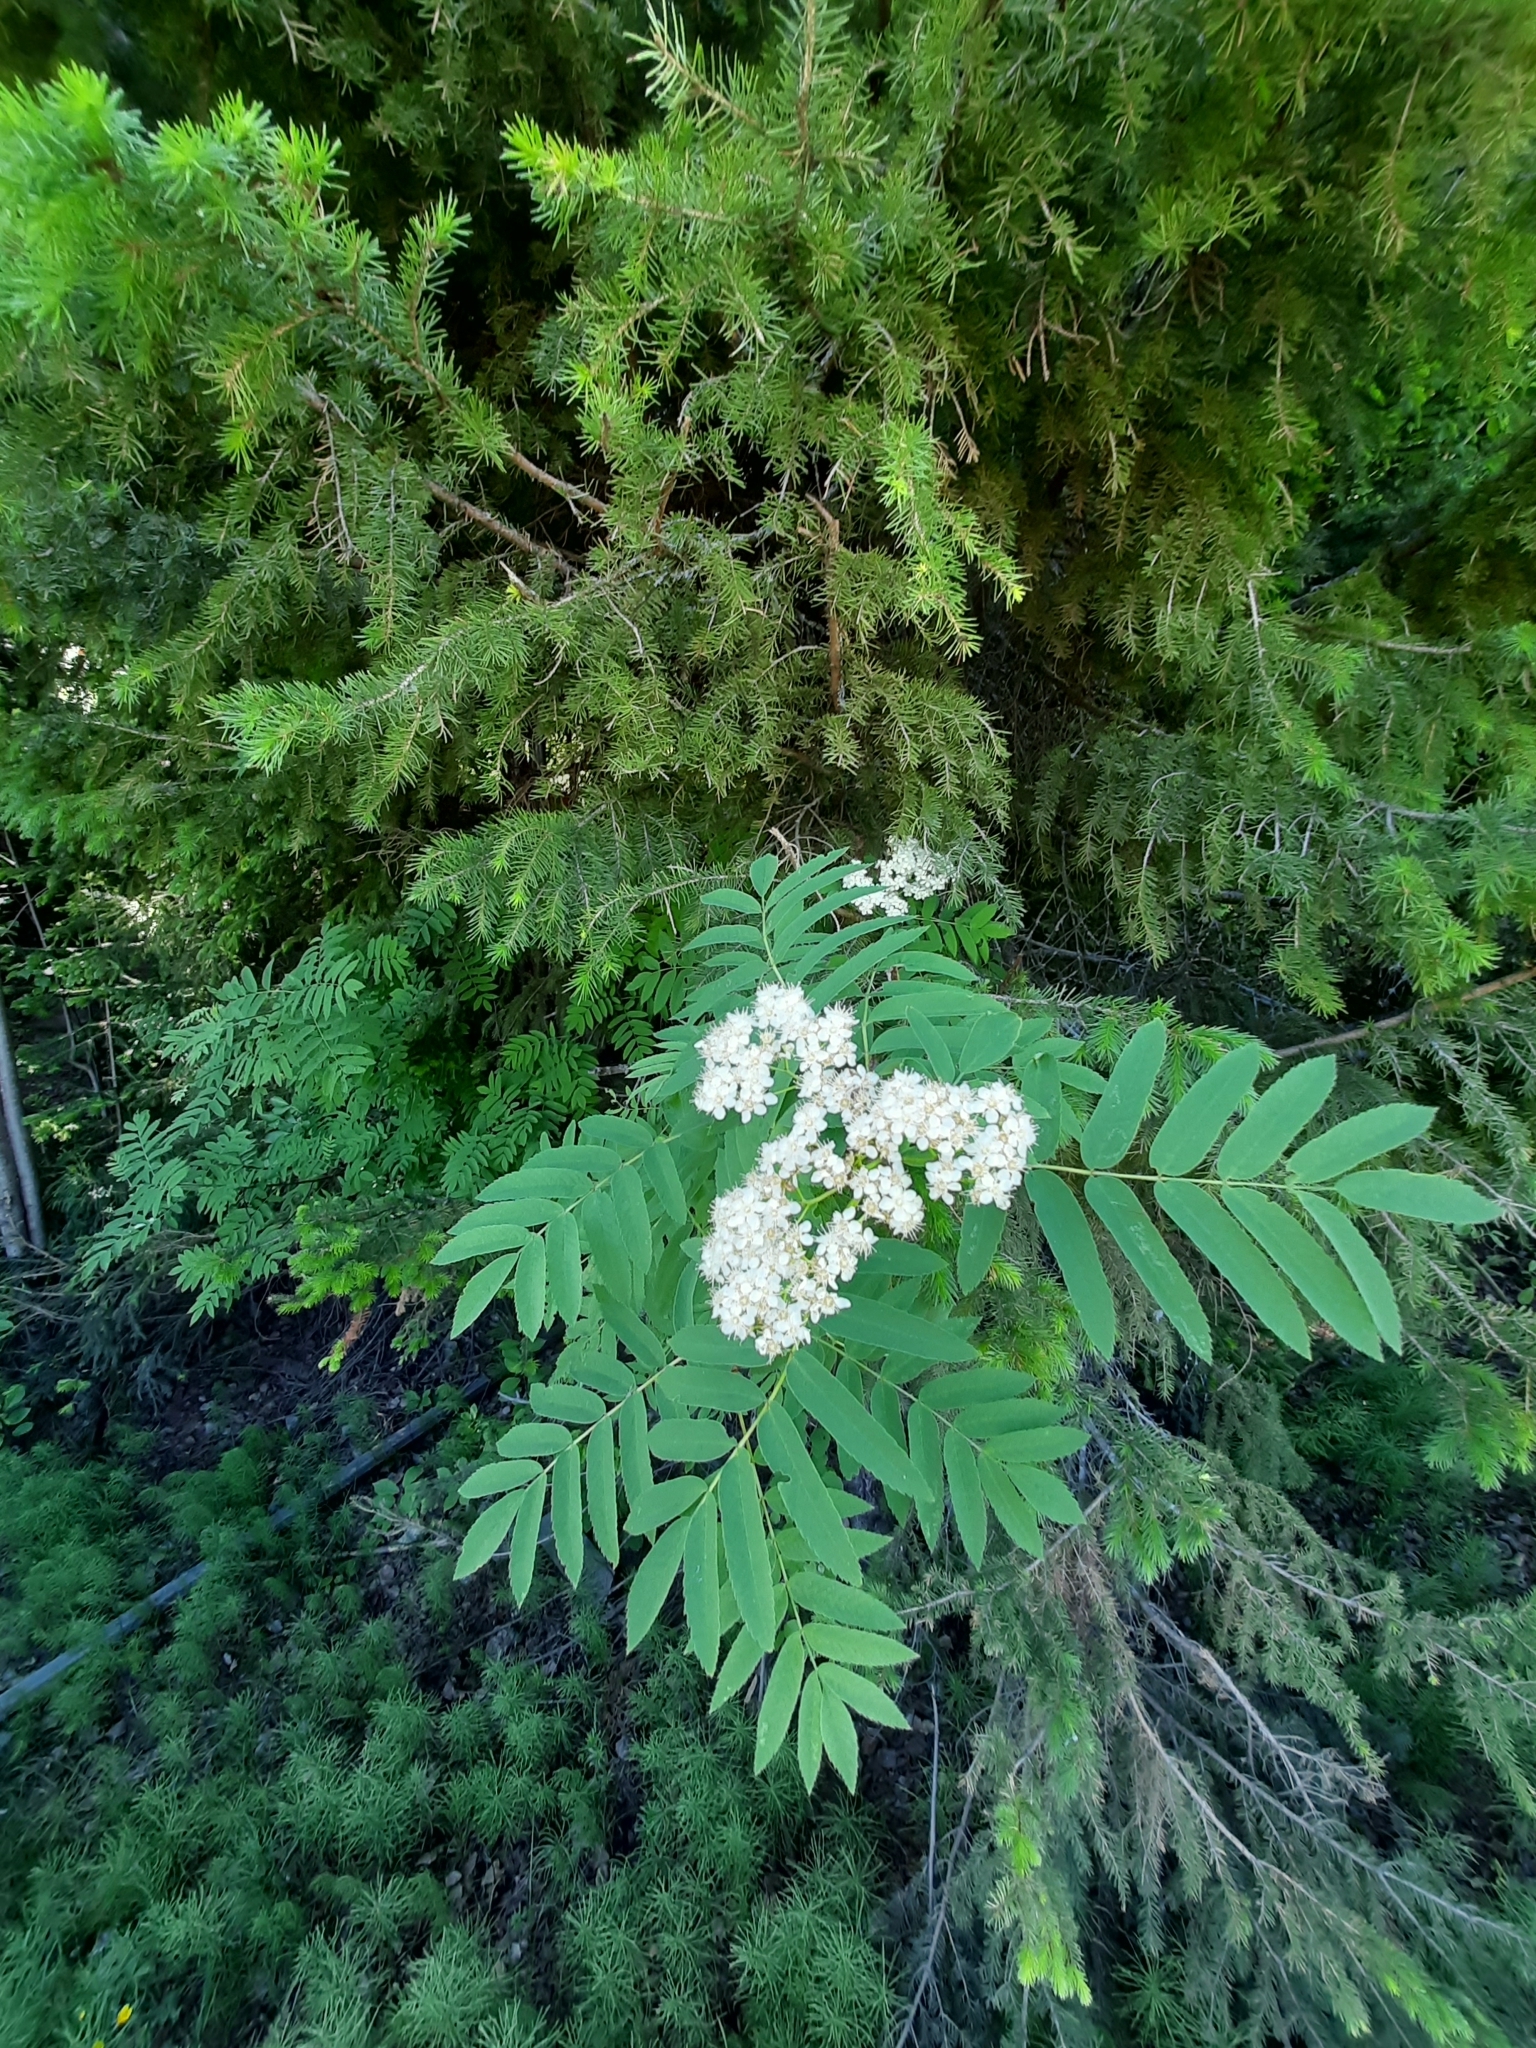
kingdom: Plantae
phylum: Tracheophyta
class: Magnoliopsida
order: Rosales
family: Rosaceae
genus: Sorbus
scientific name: Sorbus aucuparia
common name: Rowan
